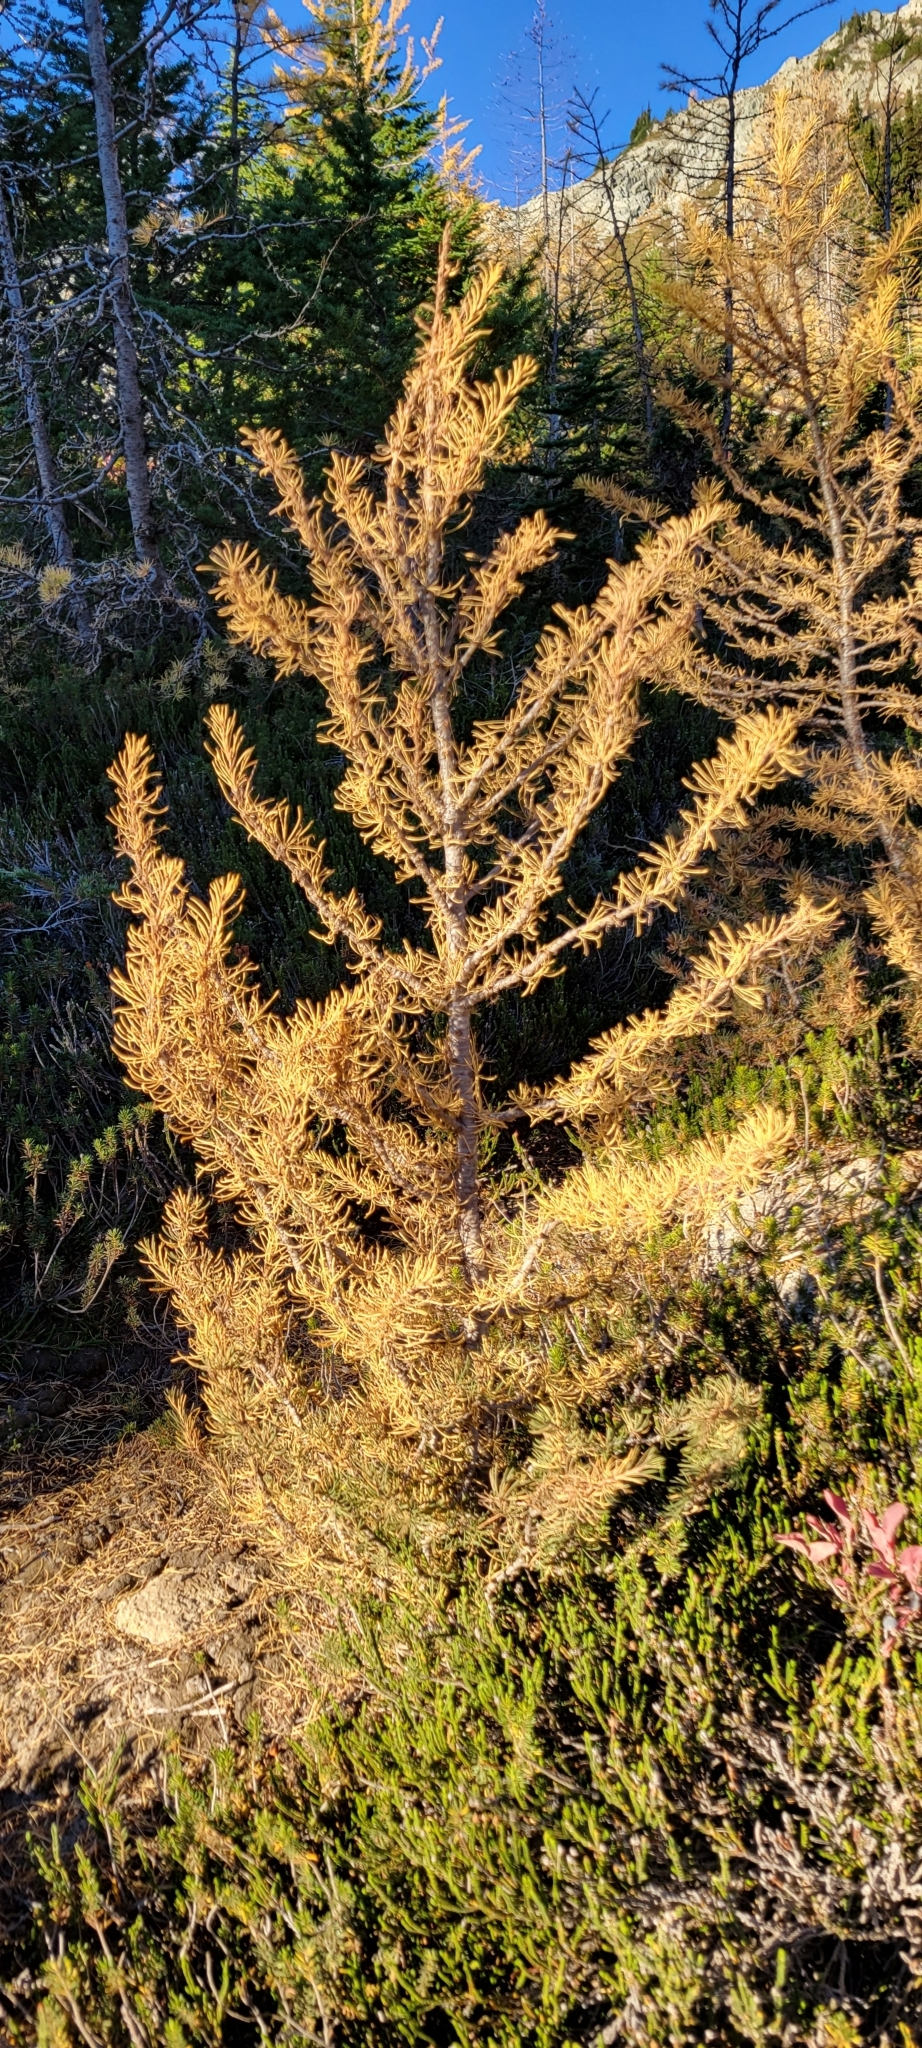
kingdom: Plantae
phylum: Tracheophyta
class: Pinopsida
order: Pinales
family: Pinaceae
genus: Larix
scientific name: Larix lyallii
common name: Alpine larch
